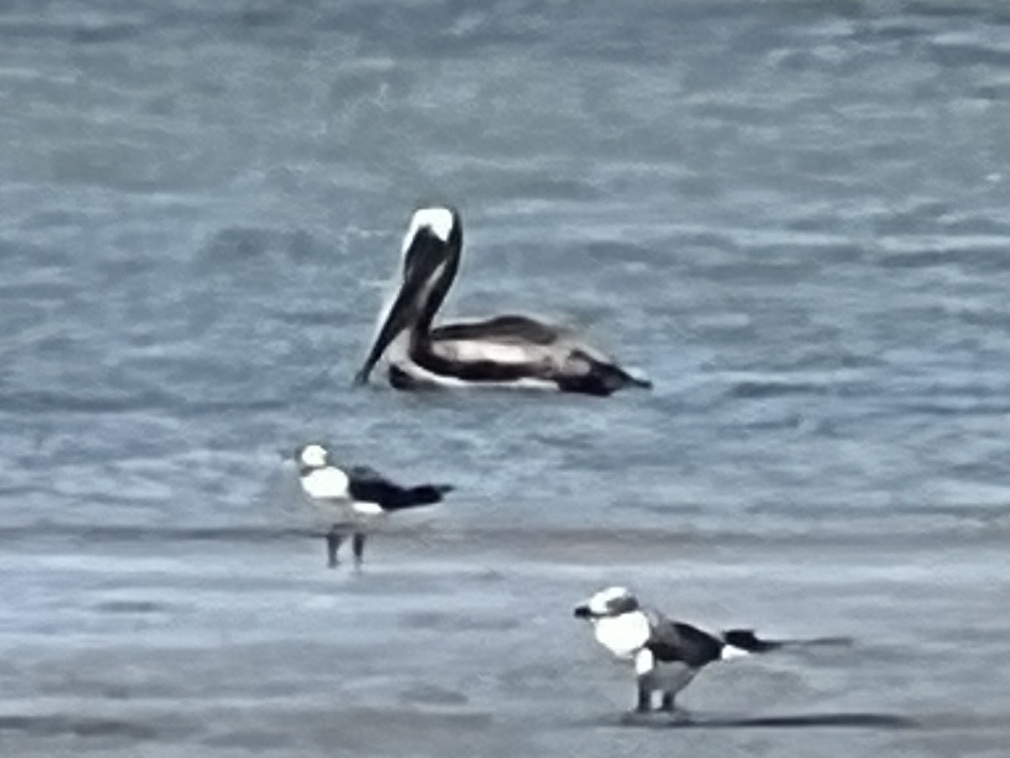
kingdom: Animalia
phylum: Chordata
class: Aves
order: Pelecaniformes
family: Pelecanidae
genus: Pelecanus
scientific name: Pelecanus occidentalis
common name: Brown pelican
